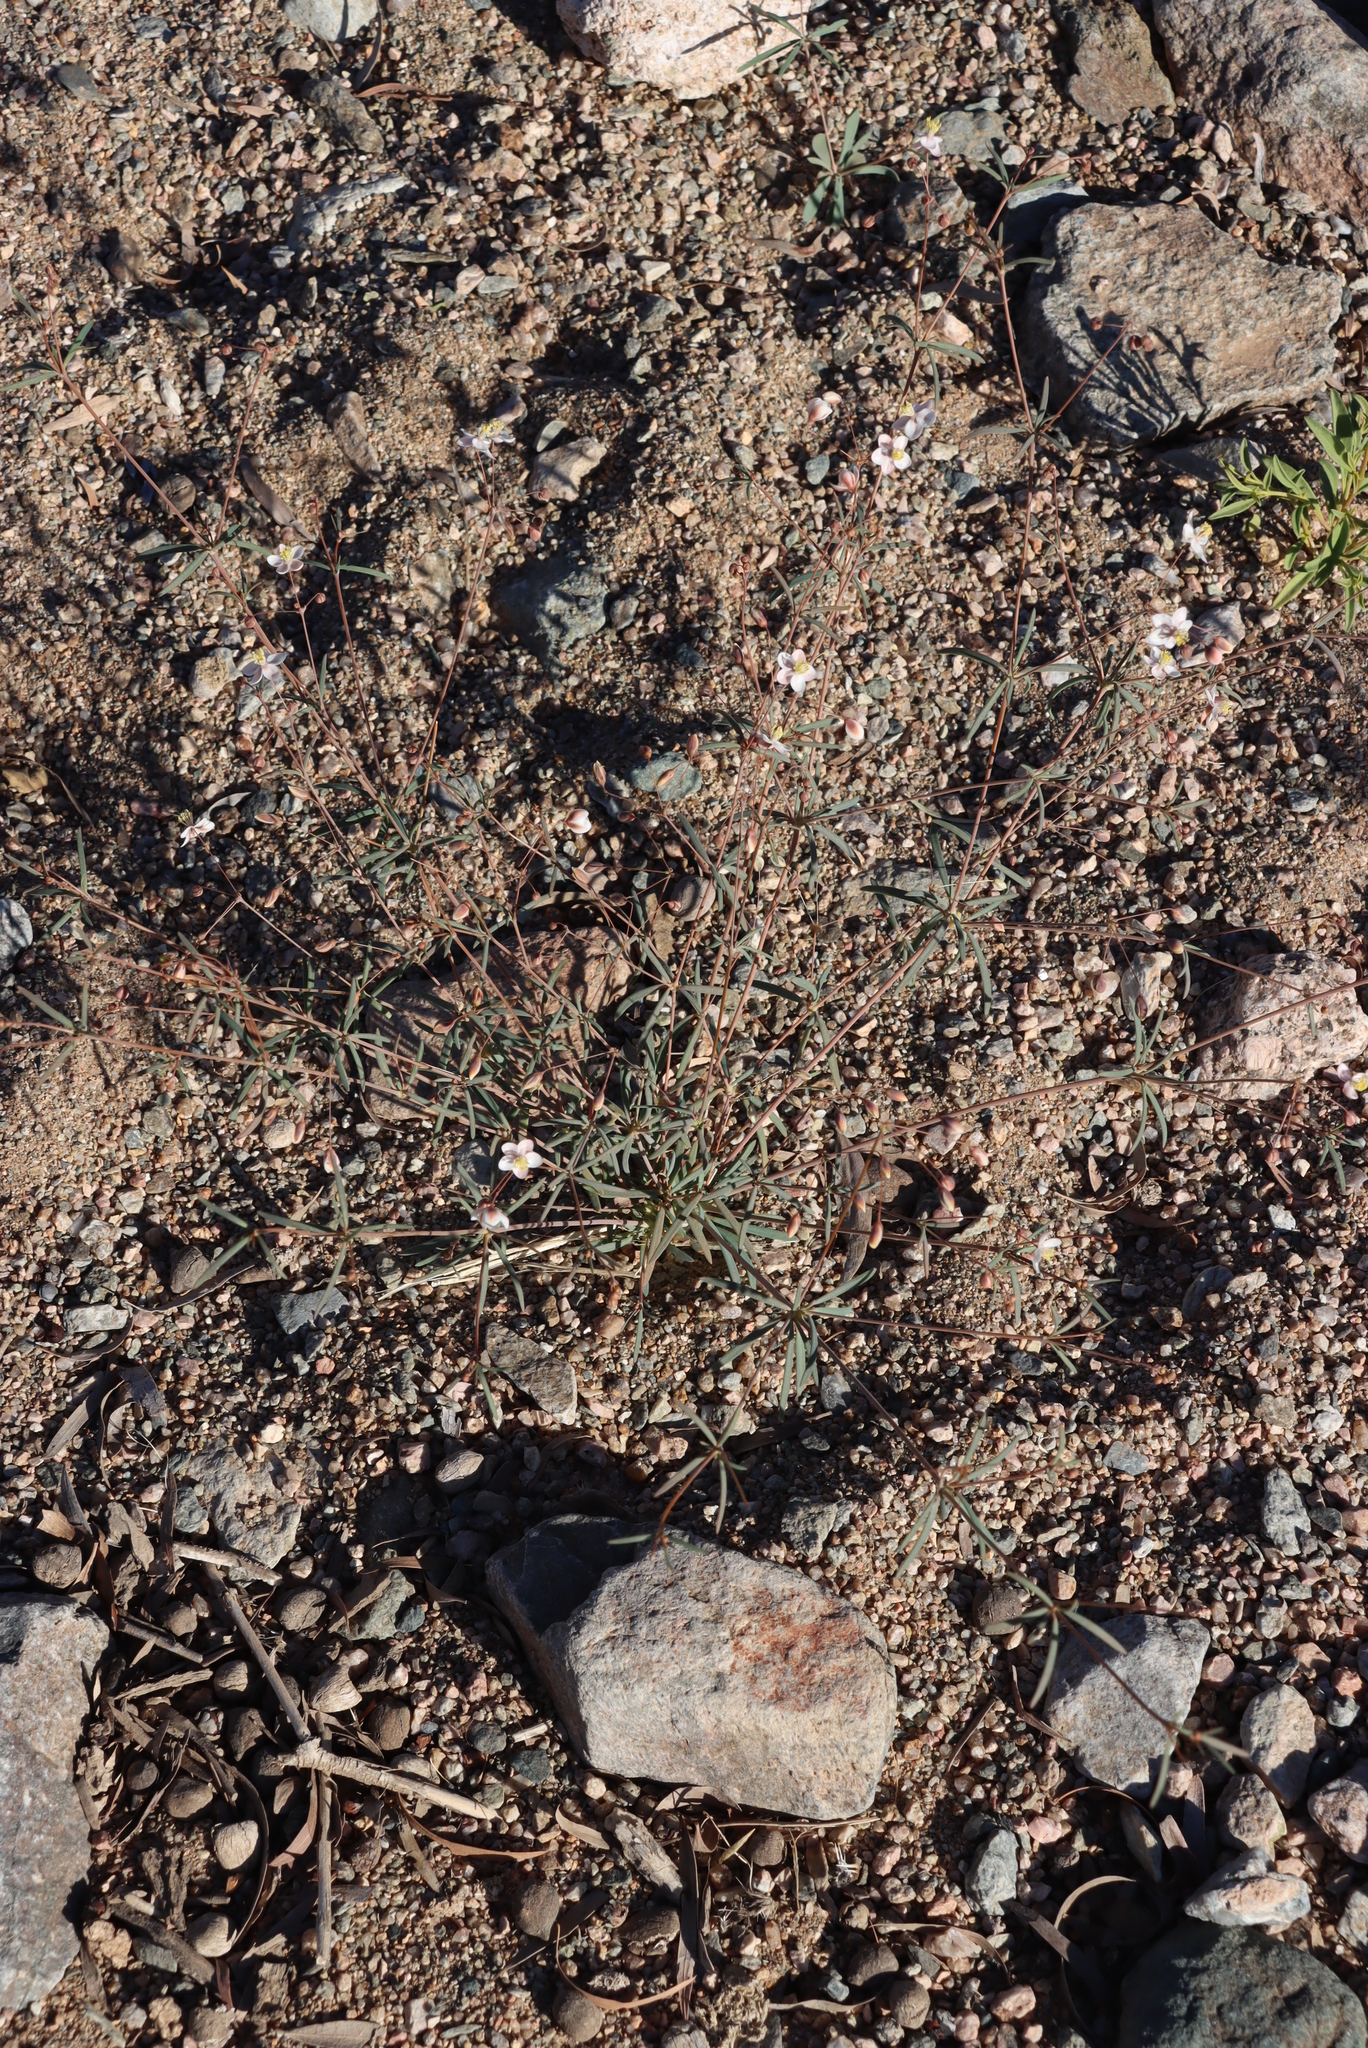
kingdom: Plantae
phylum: Tracheophyta
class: Magnoliopsida
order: Caryophyllales
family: Molluginaceae
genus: Hypertelis
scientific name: Hypertelis spergulacea
